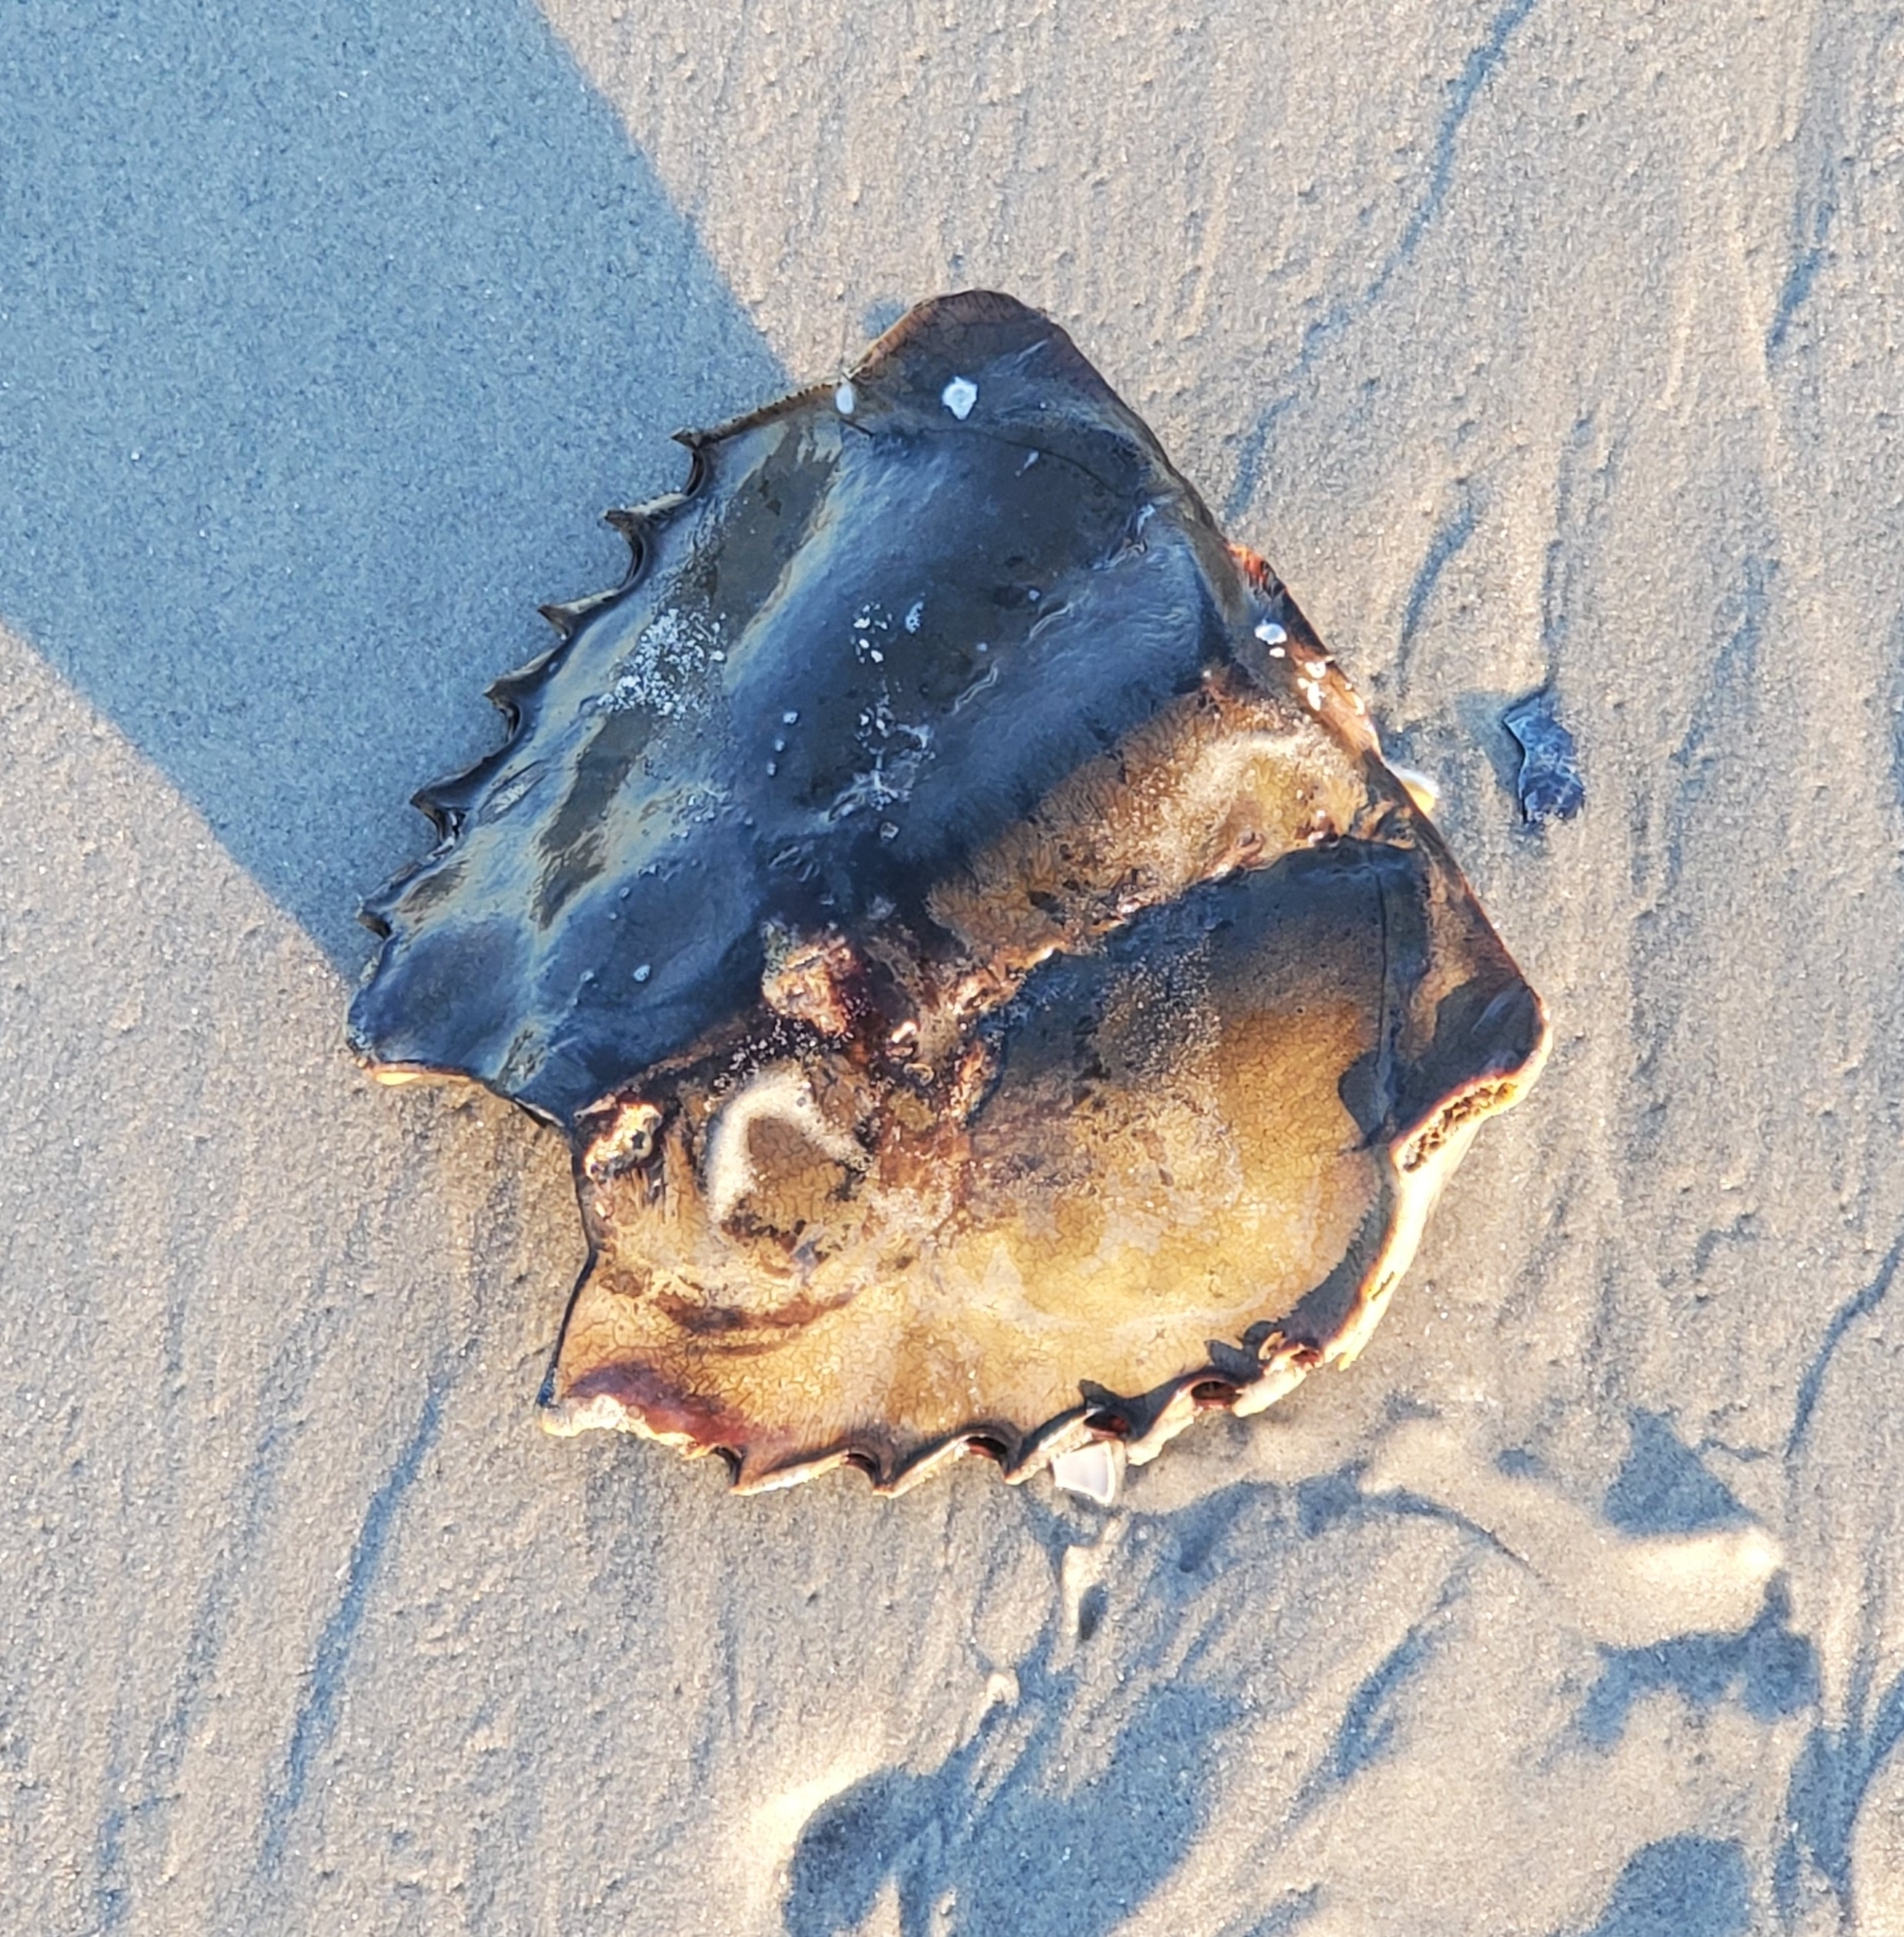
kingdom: Animalia
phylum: Arthropoda
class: Merostomata
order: Xiphosurida
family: Limulidae
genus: Limulus
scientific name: Limulus polyphemus
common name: Horseshoe crab
